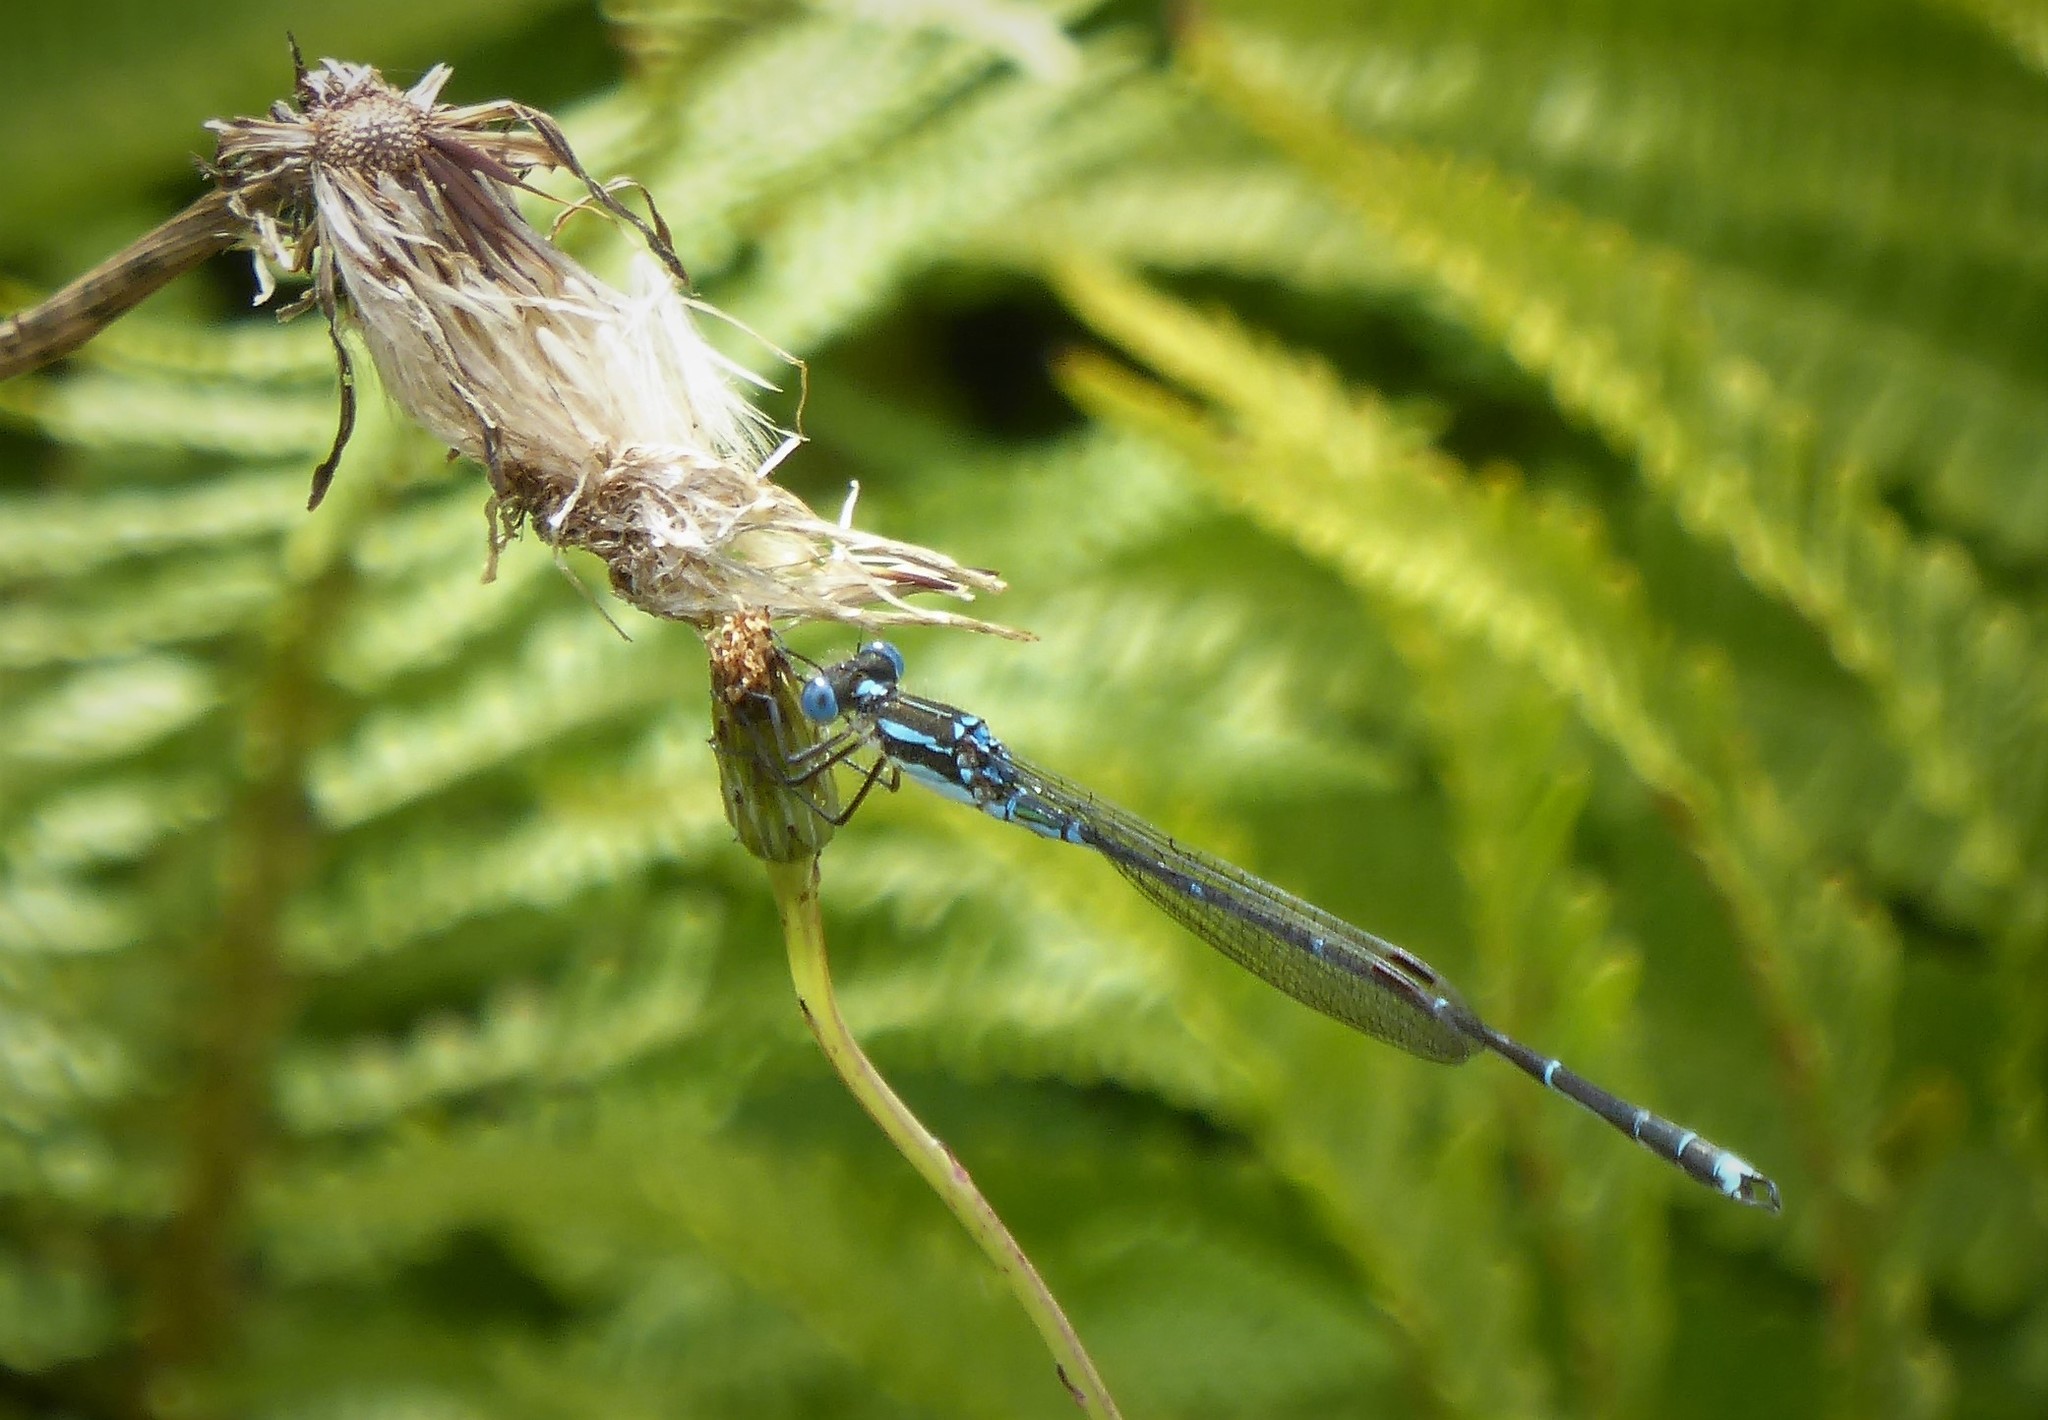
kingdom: Animalia
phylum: Arthropoda
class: Insecta
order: Odonata
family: Lestidae
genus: Austrolestes
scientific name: Austrolestes colensonis
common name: Blue damselfly
